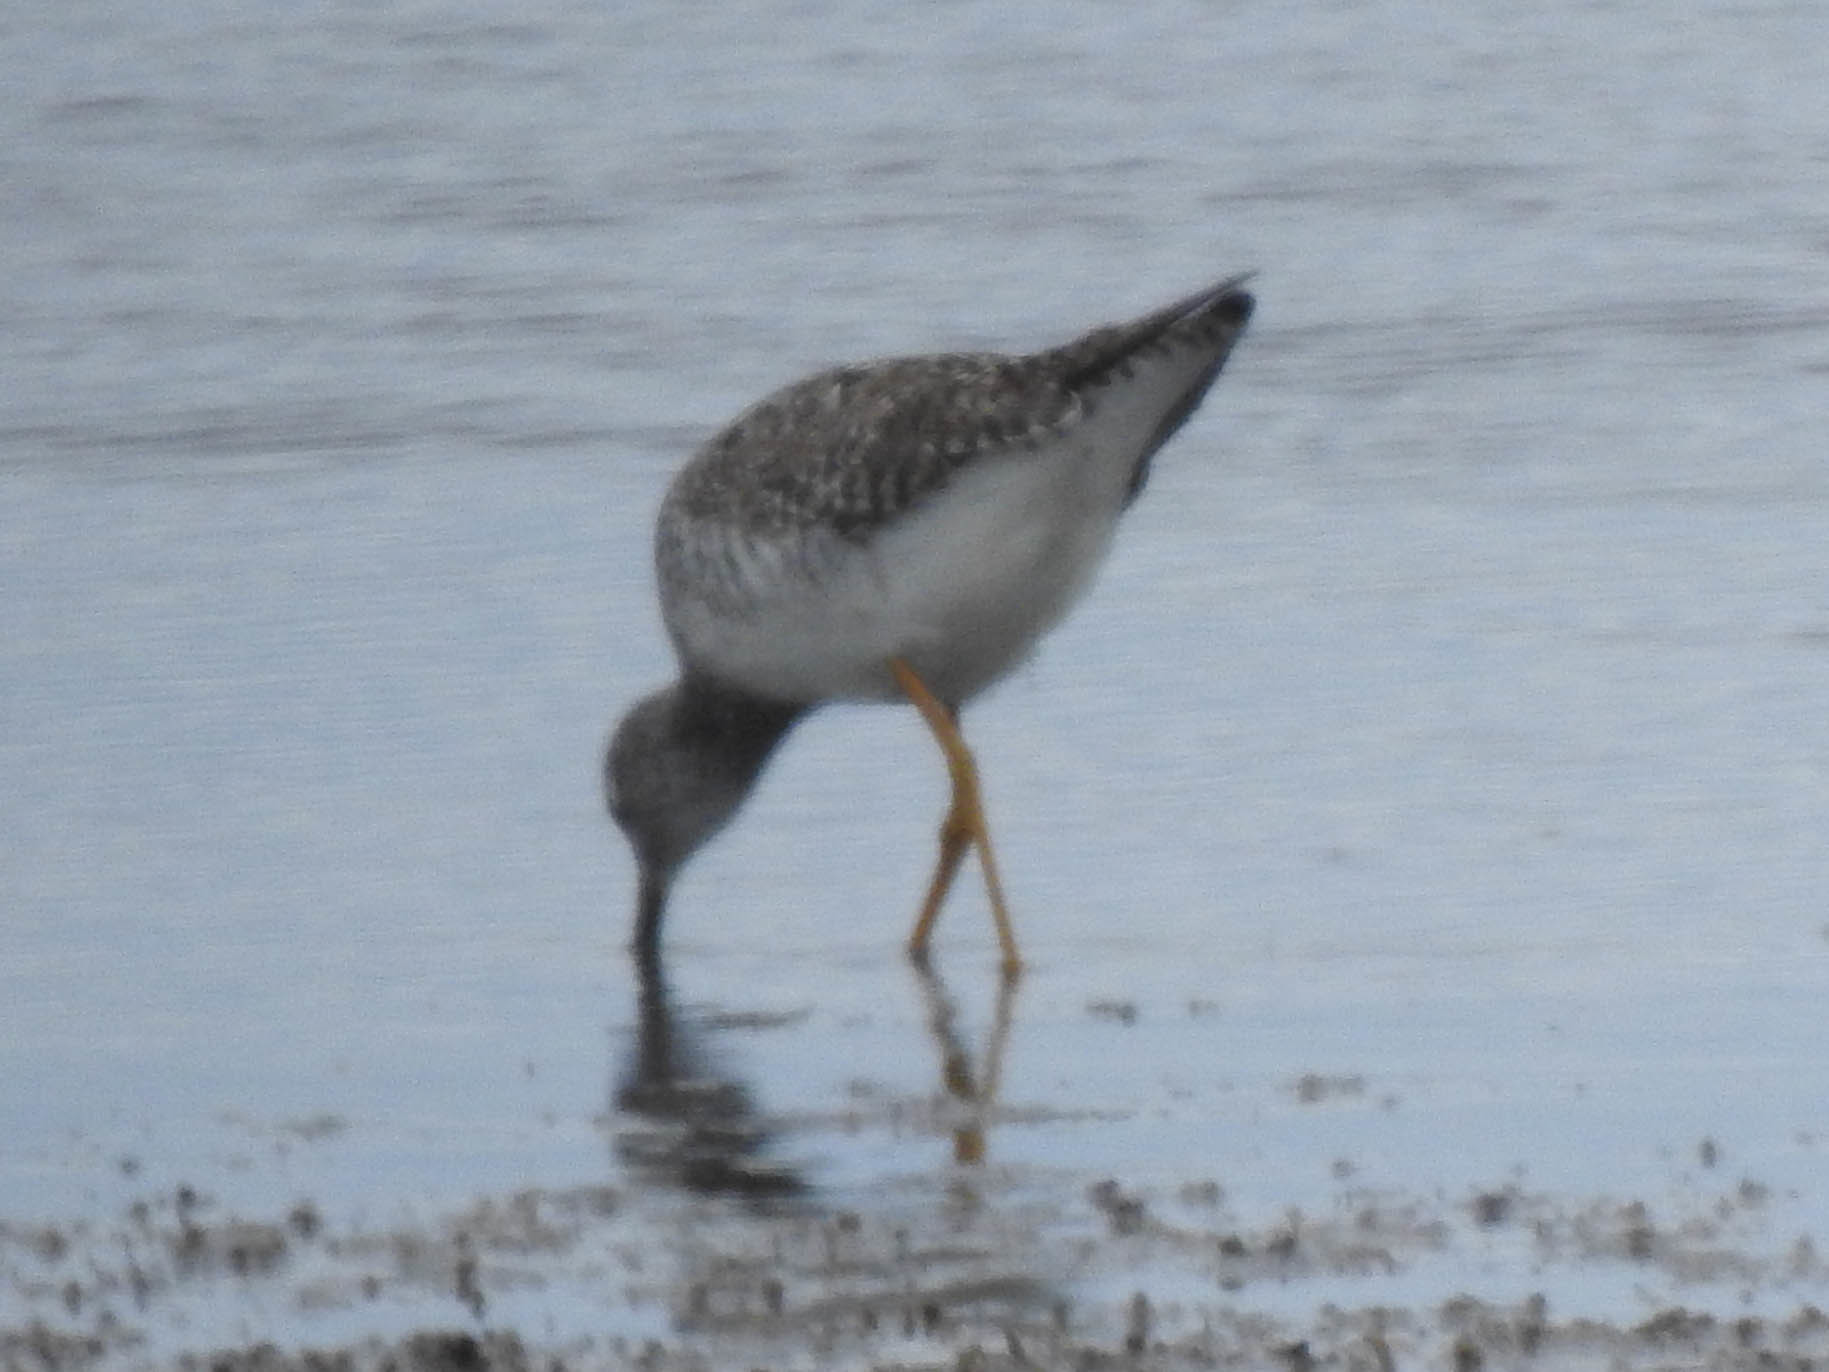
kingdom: Animalia
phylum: Chordata
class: Aves
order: Charadriiformes
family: Scolopacidae
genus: Tringa
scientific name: Tringa melanoleuca
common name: Greater yellowlegs
